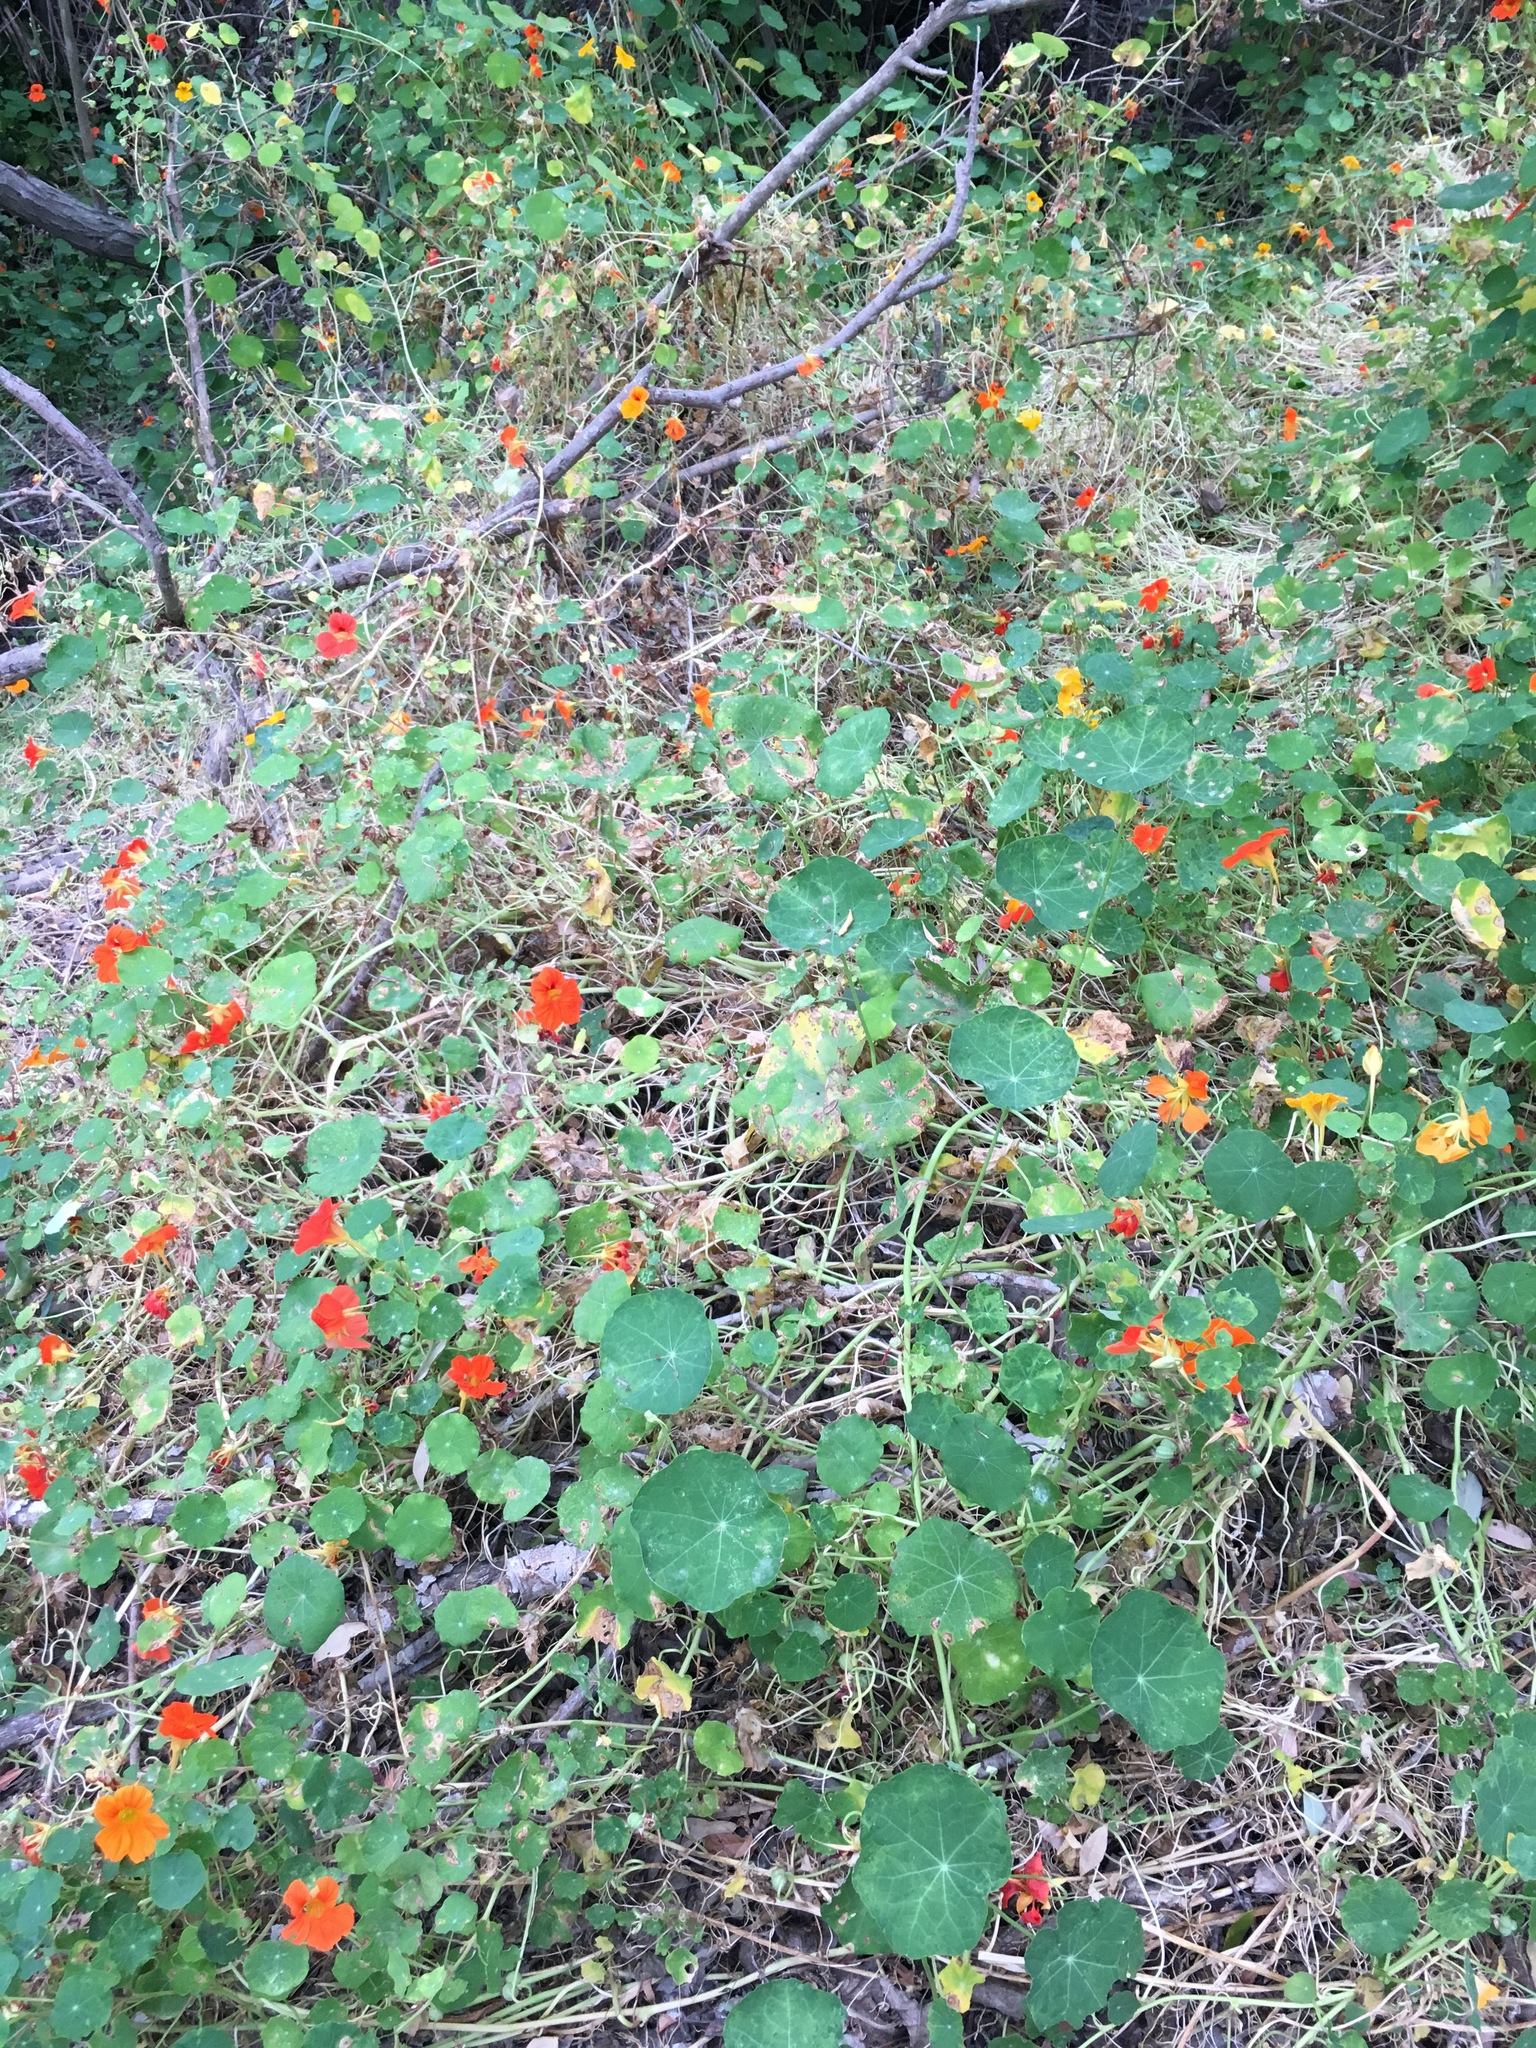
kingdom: Plantae
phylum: Tracheophyta
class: Magnoliopsida
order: Brassicales
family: Tropaeolaceae
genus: Tropaeolum
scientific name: Tropaeolum majus
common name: Nasturtium
